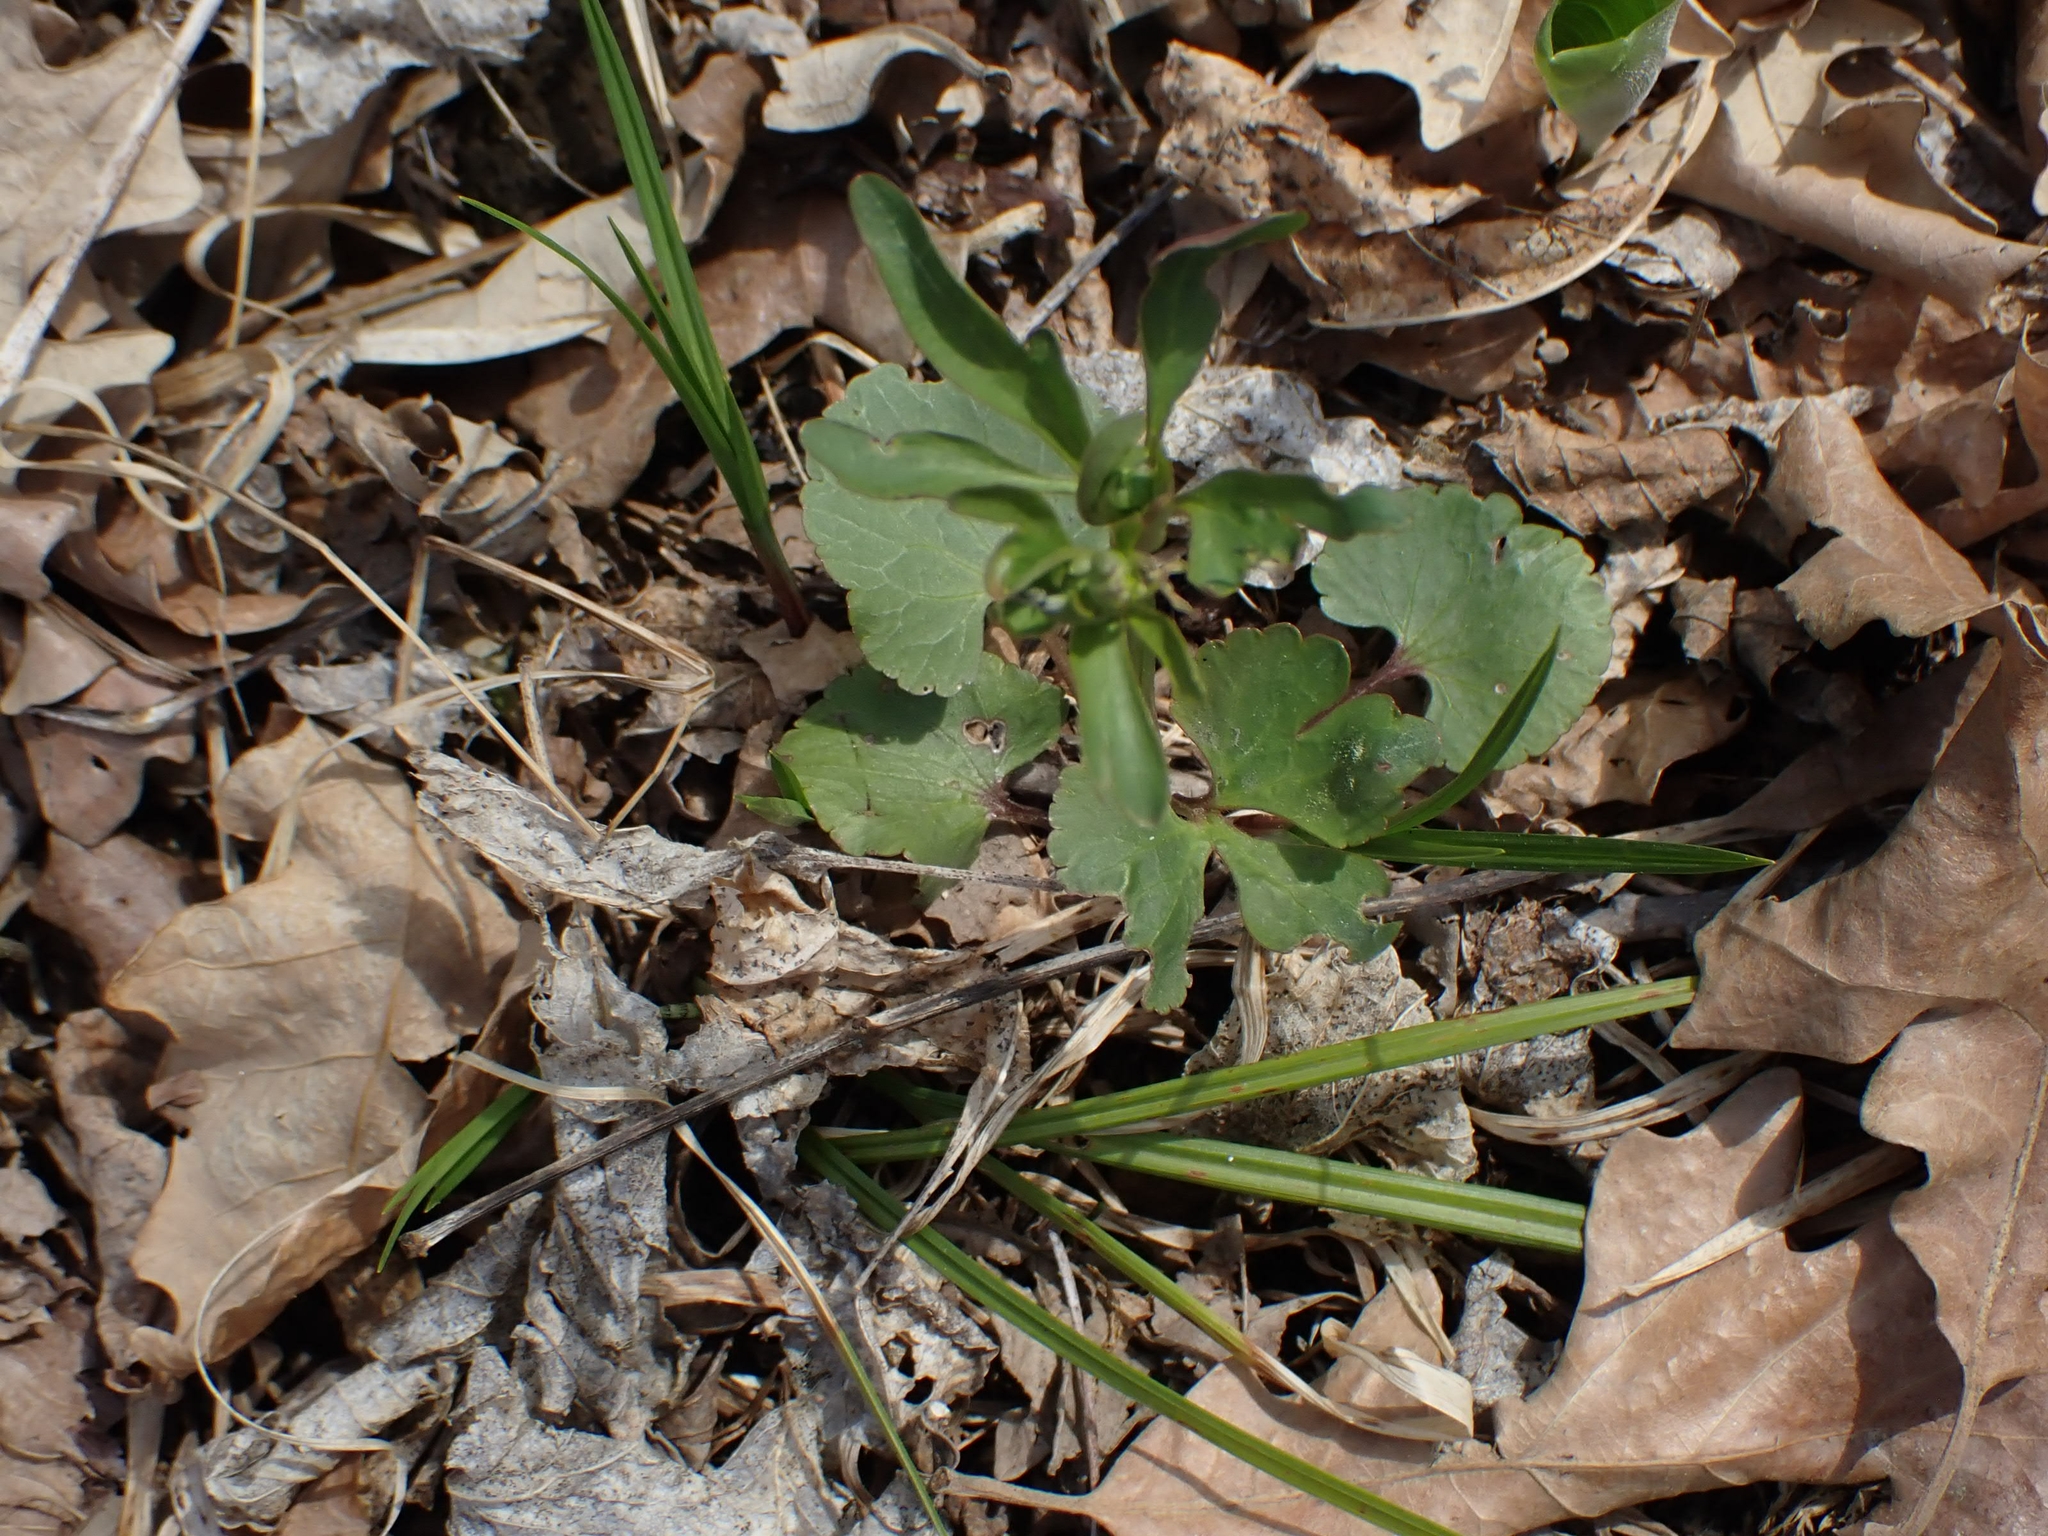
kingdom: Plantae
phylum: Tracheophyta
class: Magnoliopsida
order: Ranunculales
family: Ranunculaceae
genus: Ranunculus
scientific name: Ranunculus abortivus
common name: Early wood buttercup
